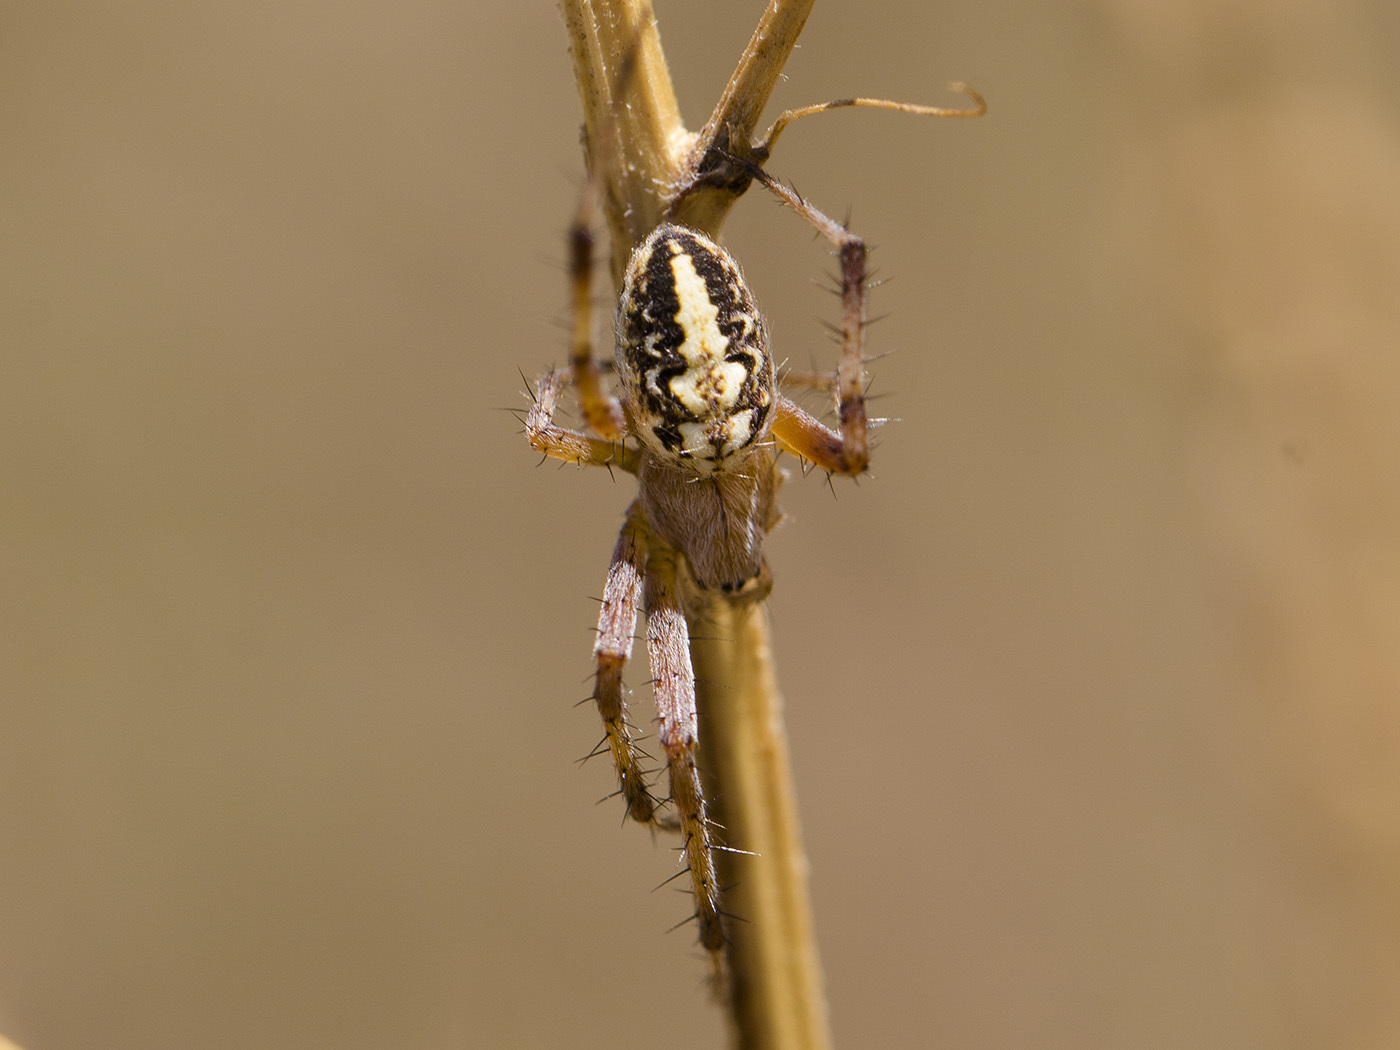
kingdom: Animalia
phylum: Arthropoda
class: Arachnida
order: Araneae
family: Araneidae
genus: Neoscona
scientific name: Neoscona adianta
